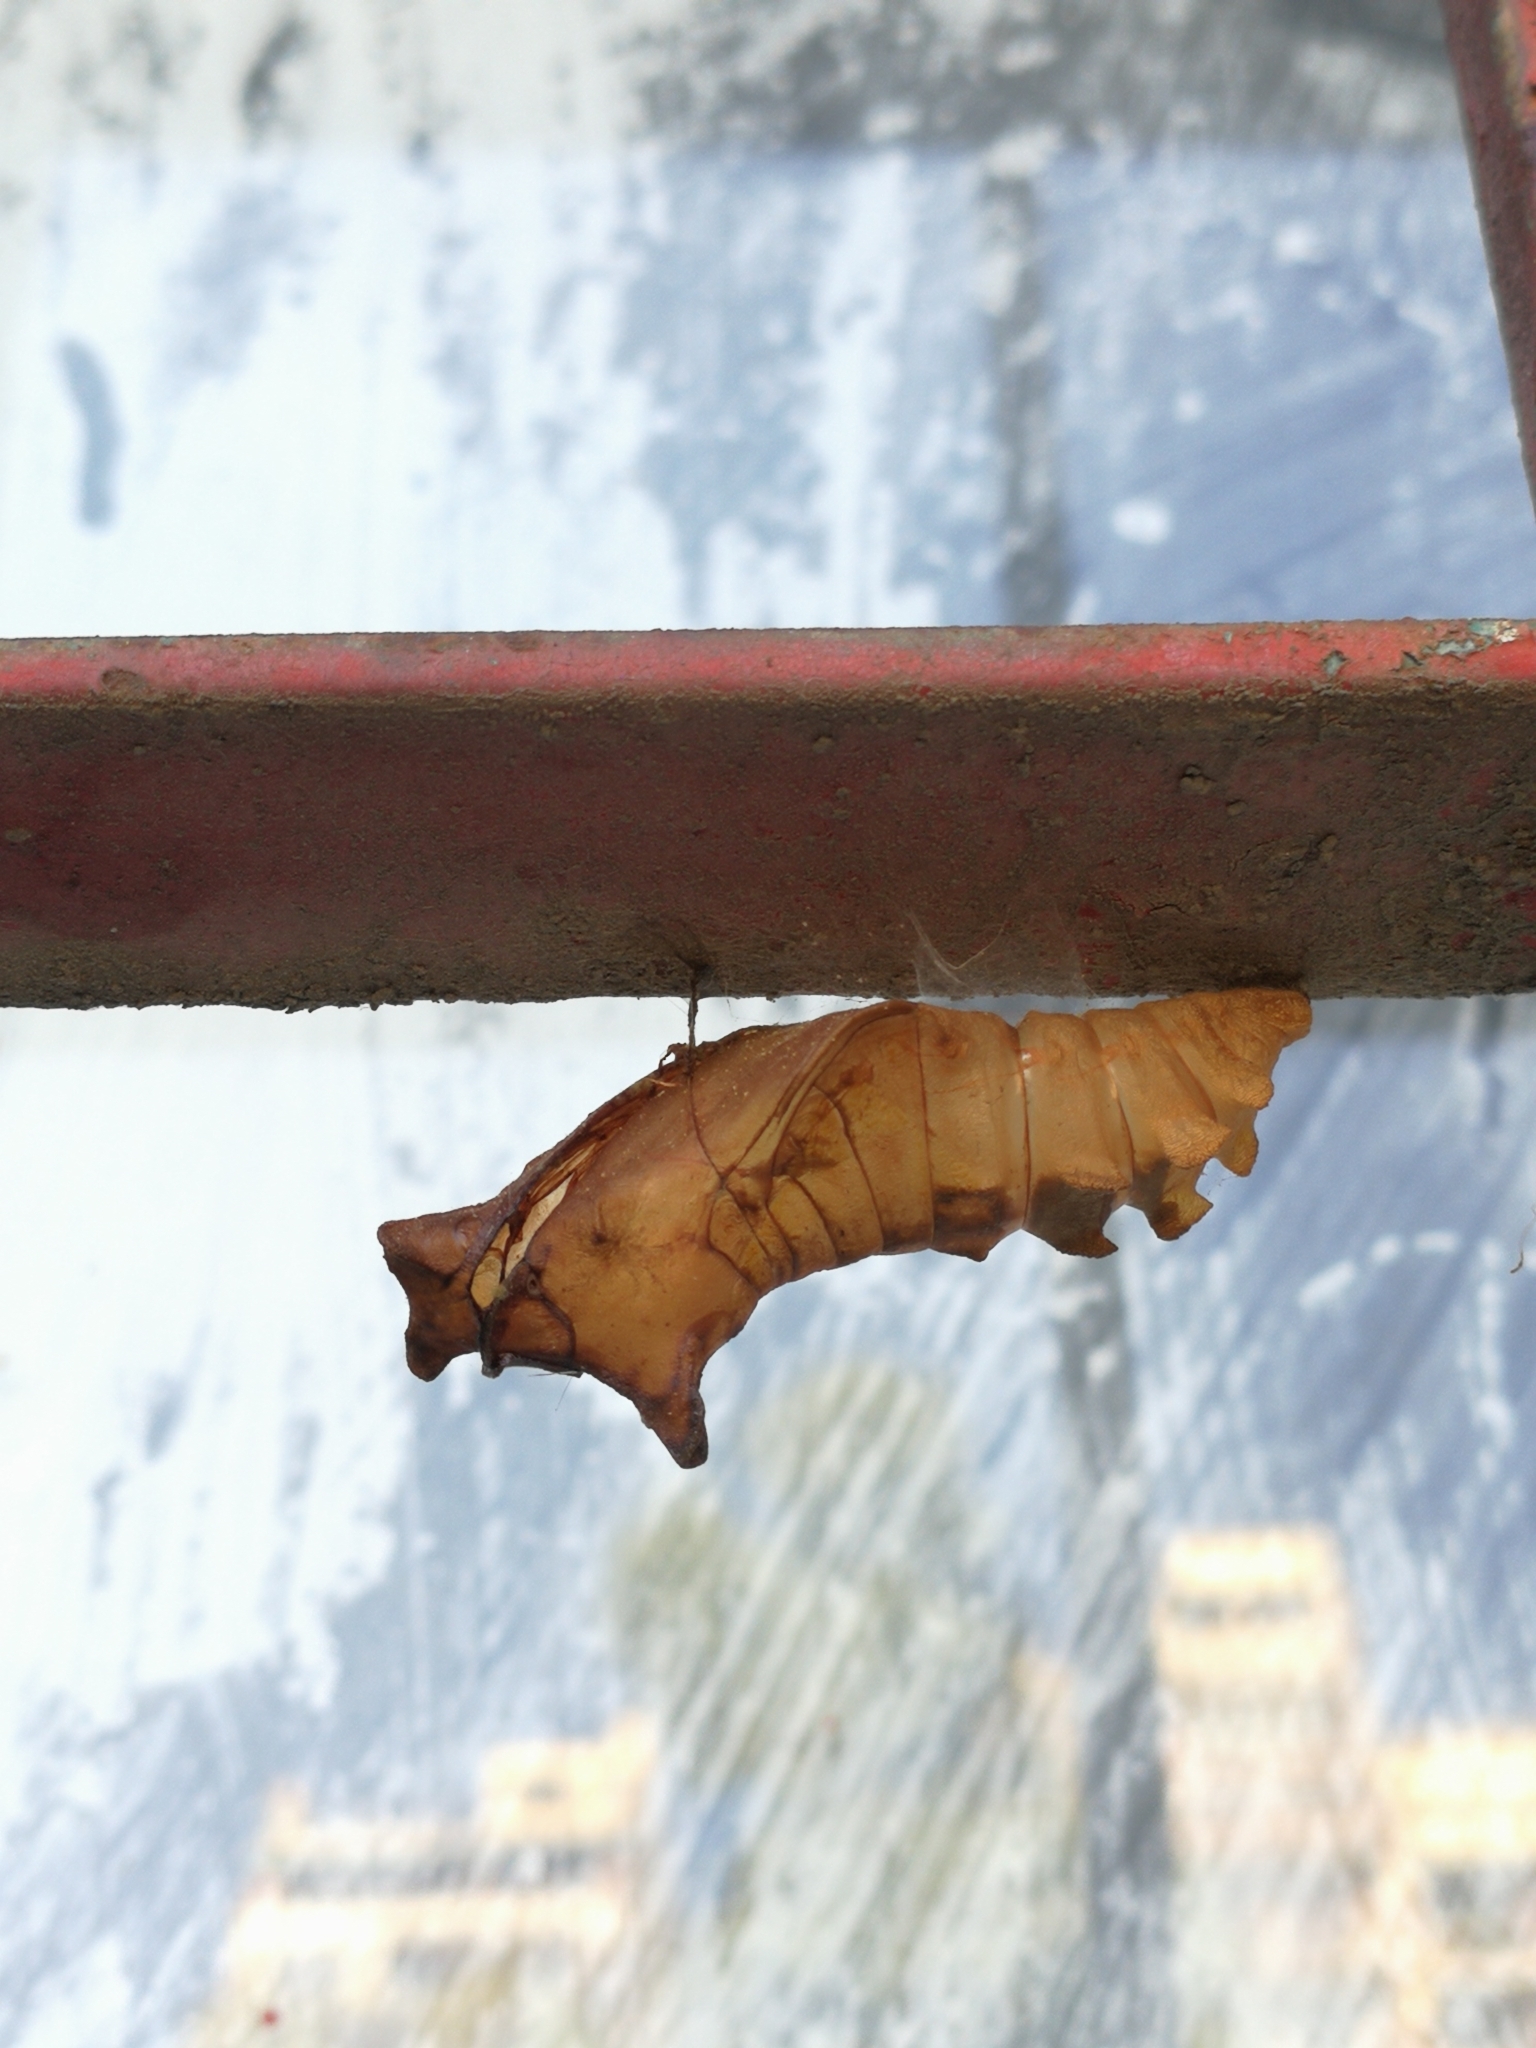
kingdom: Animalia
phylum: Arthropoda
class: Insecta
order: Lepidoptera
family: Papilionidae
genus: Battus
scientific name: Battus polydamas
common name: Polydamas swallowtail
